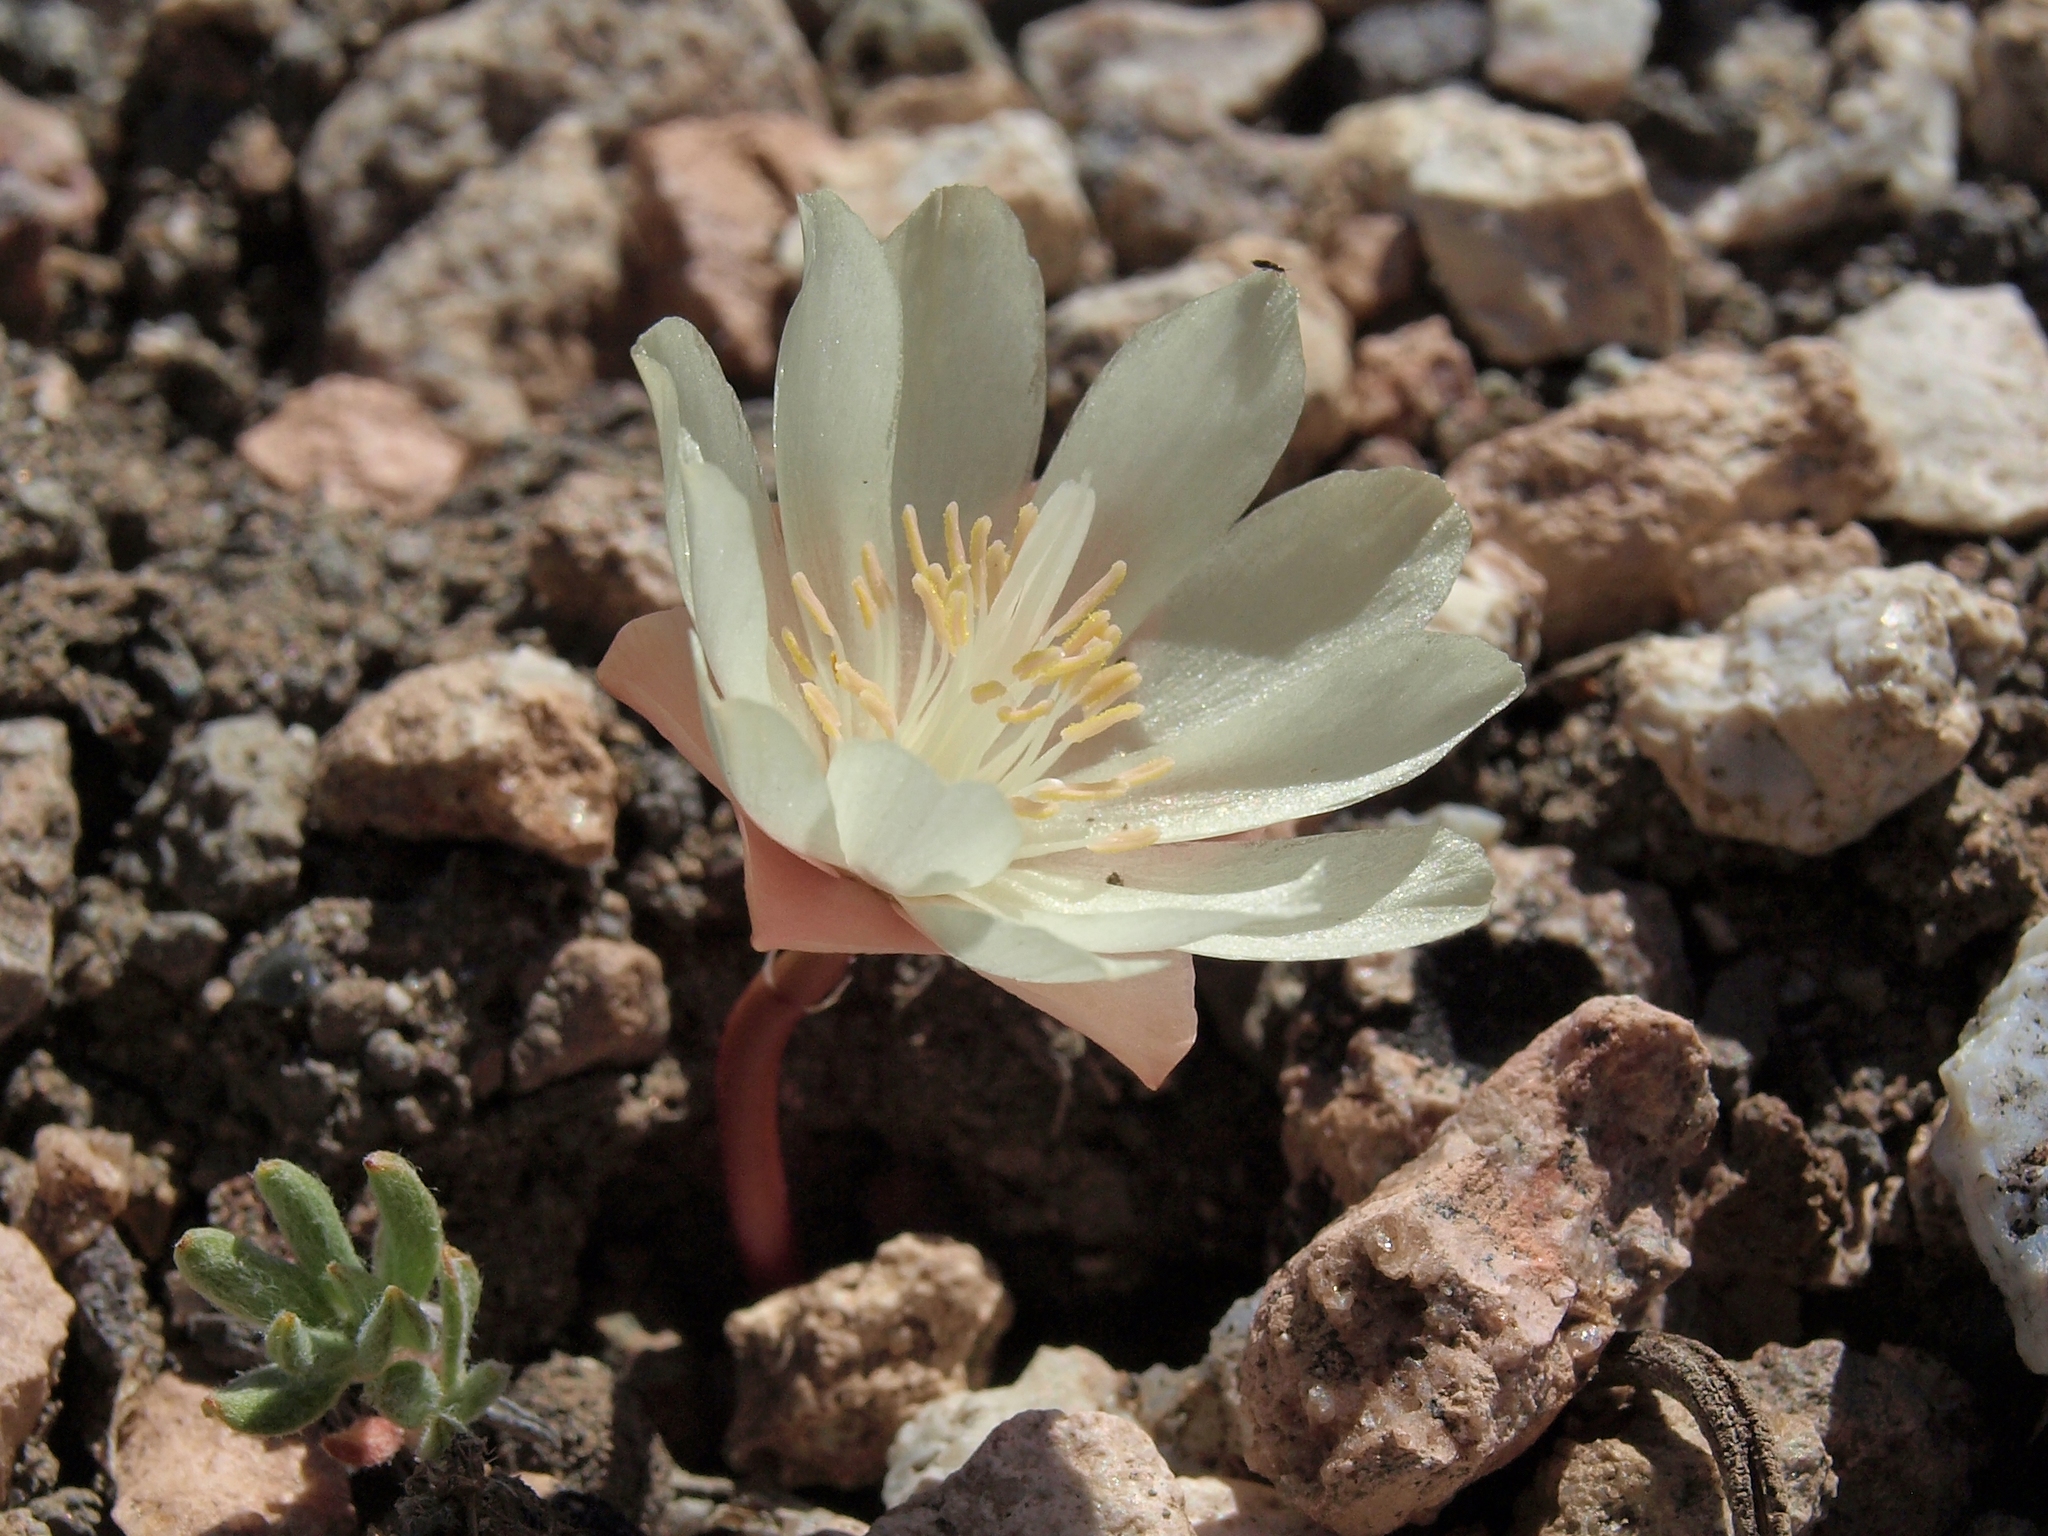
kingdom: Plantae
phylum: Tracheophyta
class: Magnoliopsida
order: Caryophyllales
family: Montiaceae
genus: Lewisia
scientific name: Lewisia rediviva
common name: Bitter-root
